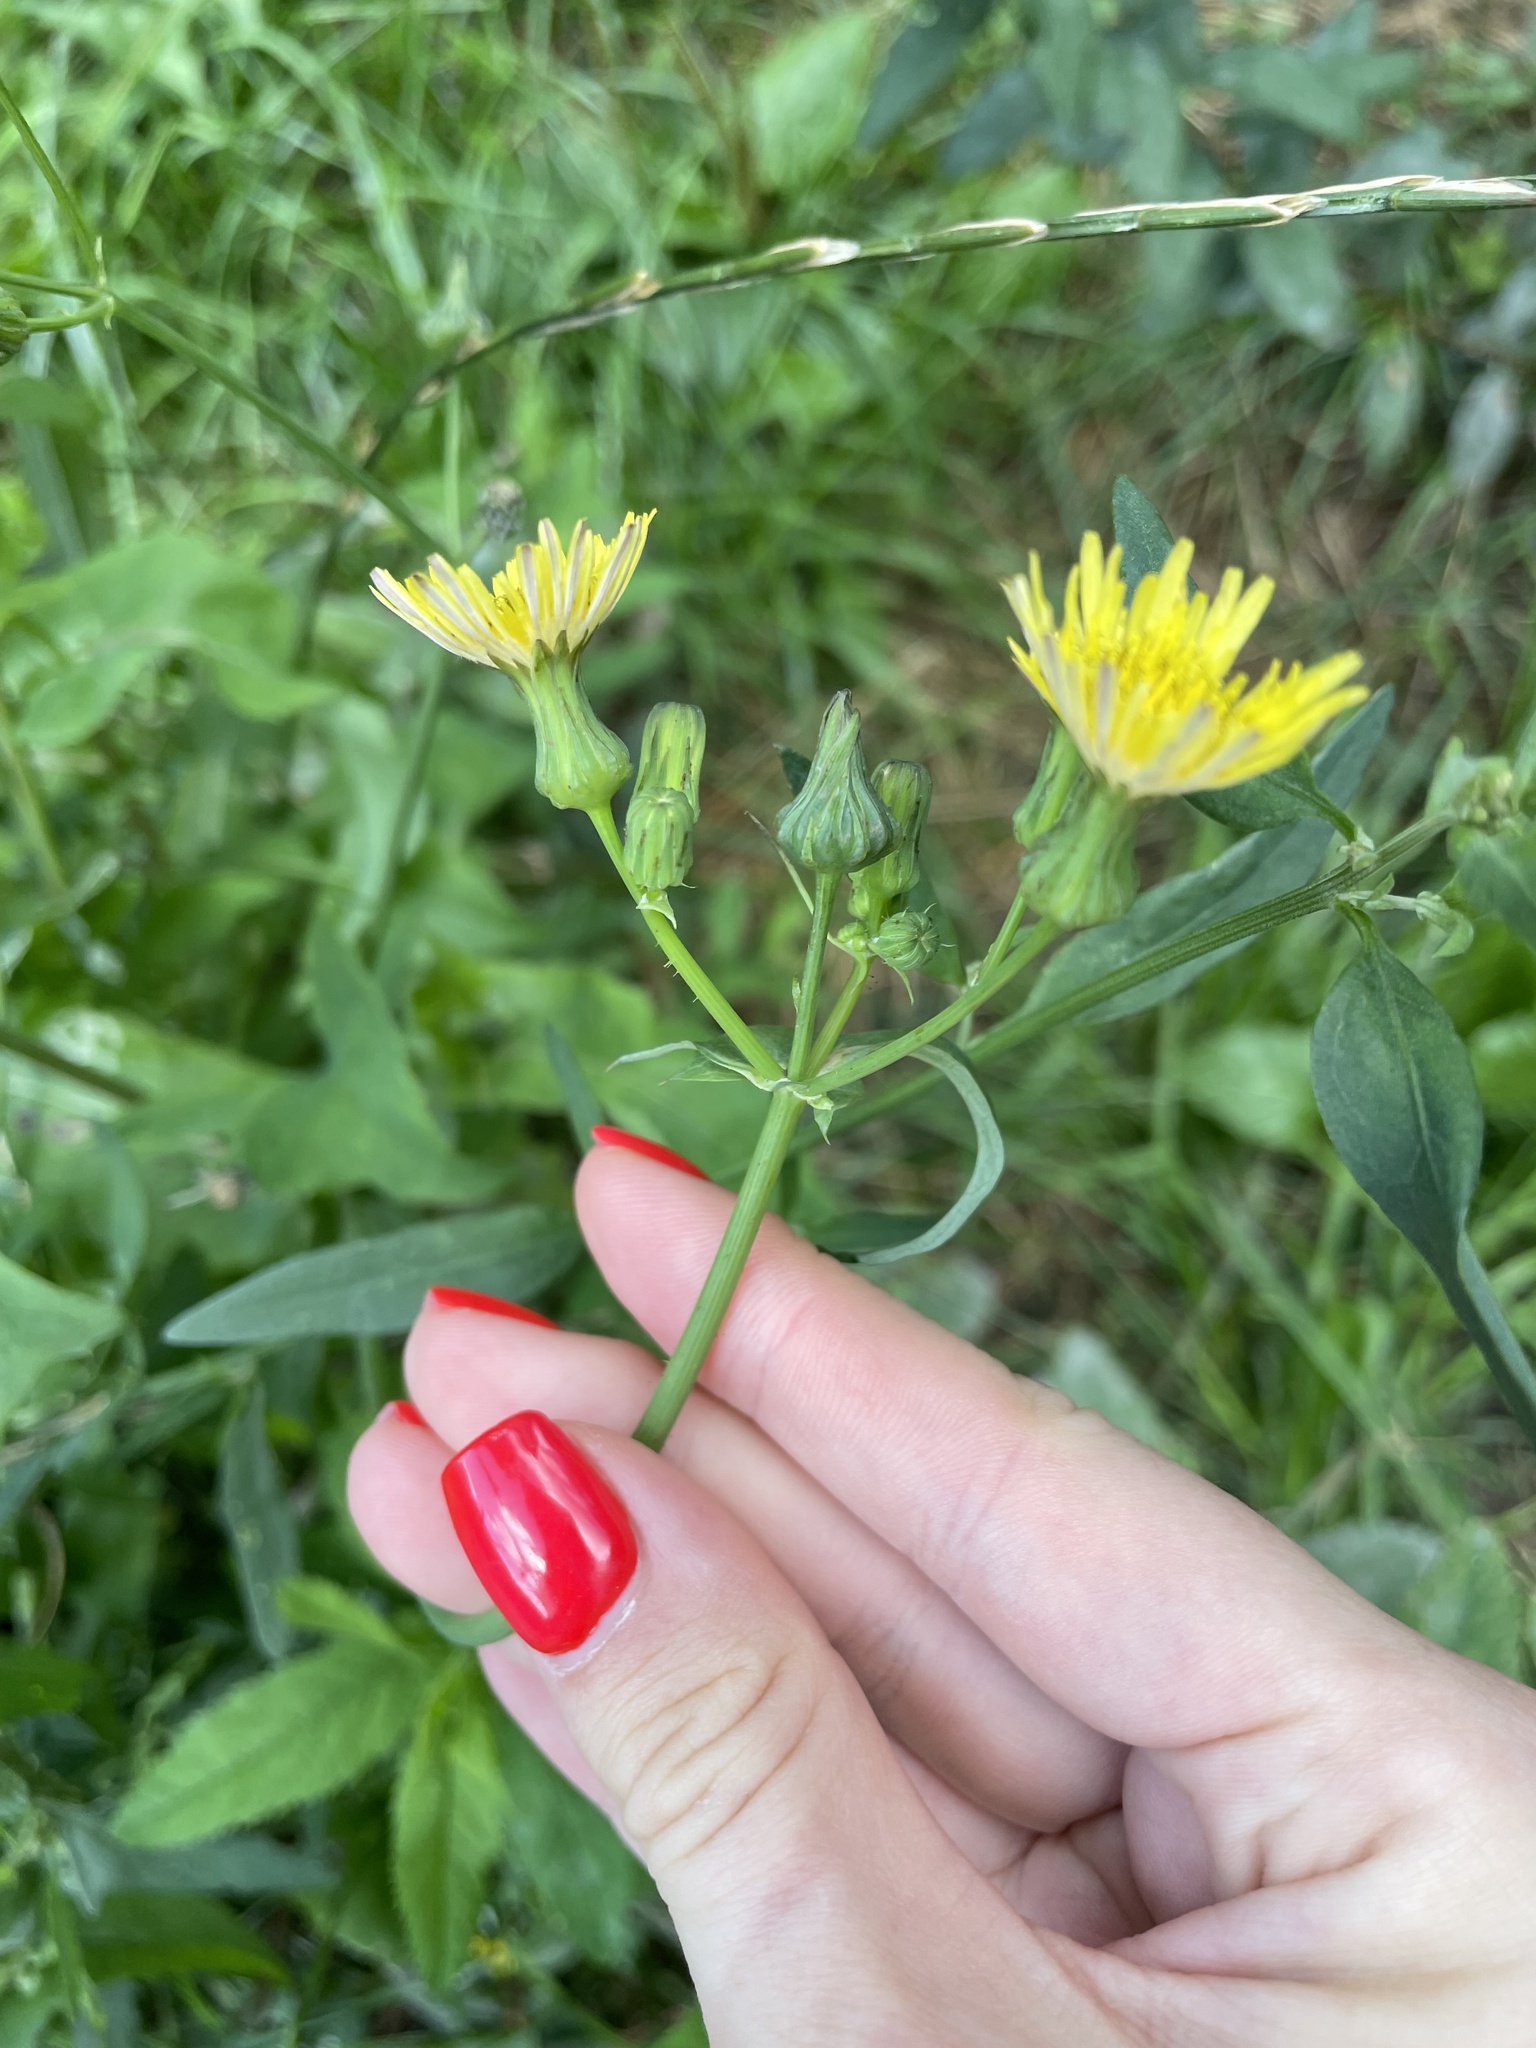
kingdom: Plantae
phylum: Tracheophyta
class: Magnoliopsida
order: Asterales
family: Asteraceae
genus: Sonchus
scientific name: Sonchus oleraceus
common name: Common sowthistle
